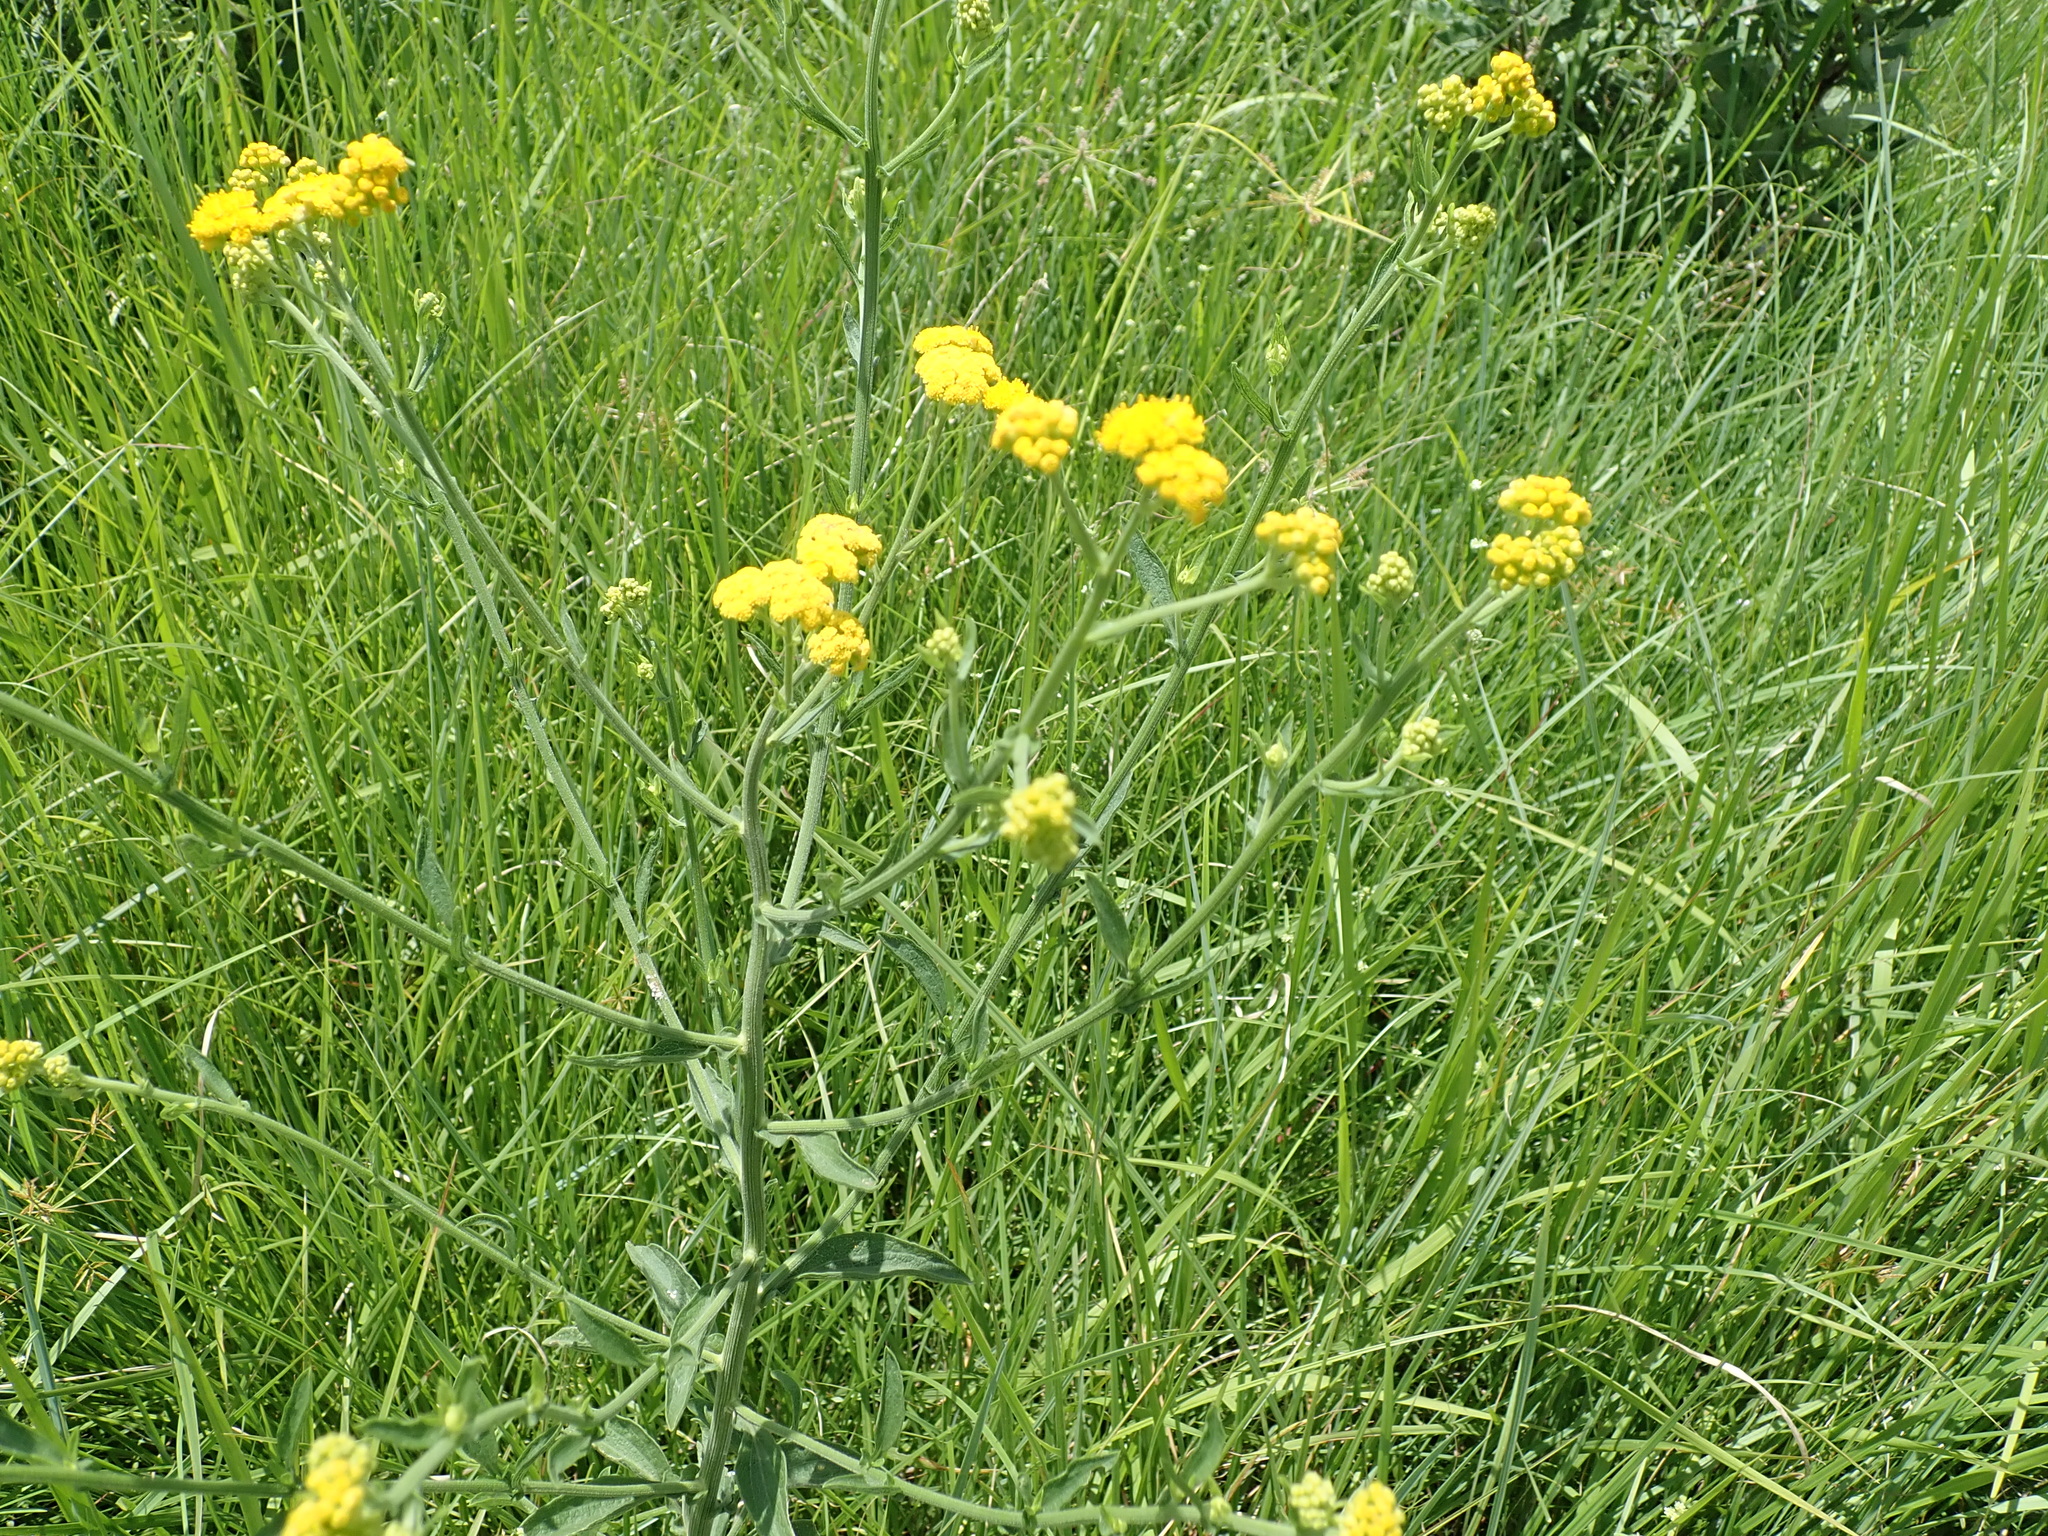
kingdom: Plantae
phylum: Tracheophyta
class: Magnoliopsida
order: Asterales
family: Asteraceae
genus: Nidorella
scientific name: Nidorella auriculata
